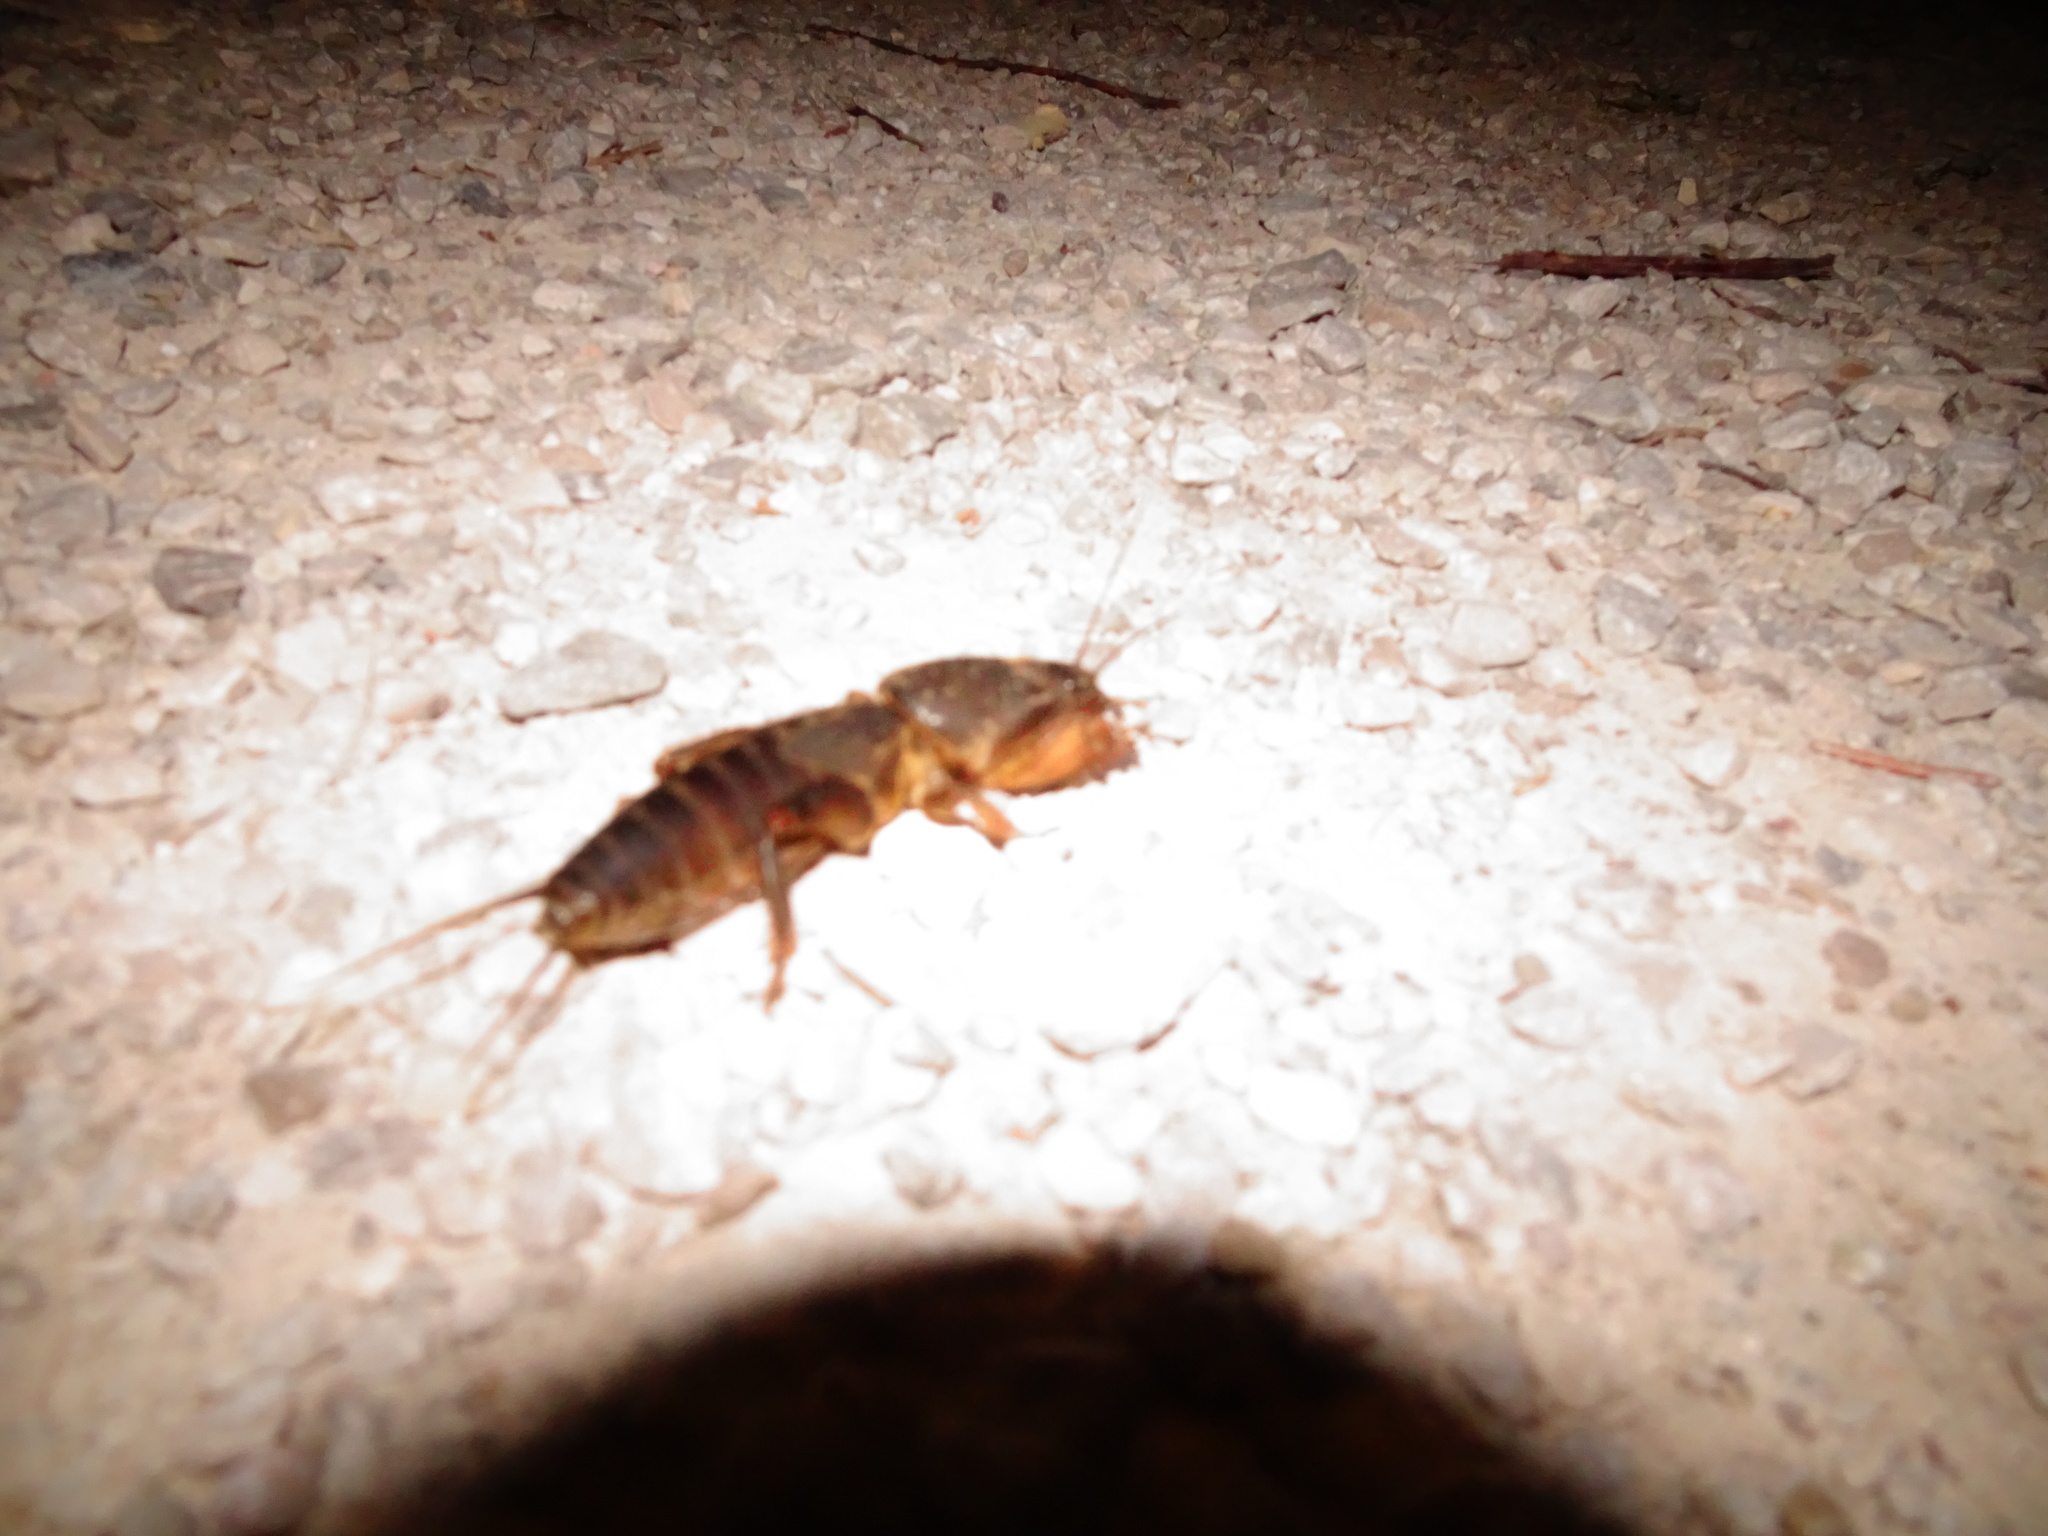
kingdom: Animalia
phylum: Arthropoda
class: Insecta
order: Orthoptera
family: Gryllotalpidae
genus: Gryllotalpa
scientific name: Gryllotalpa gryllotalpa
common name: European mole cricket
